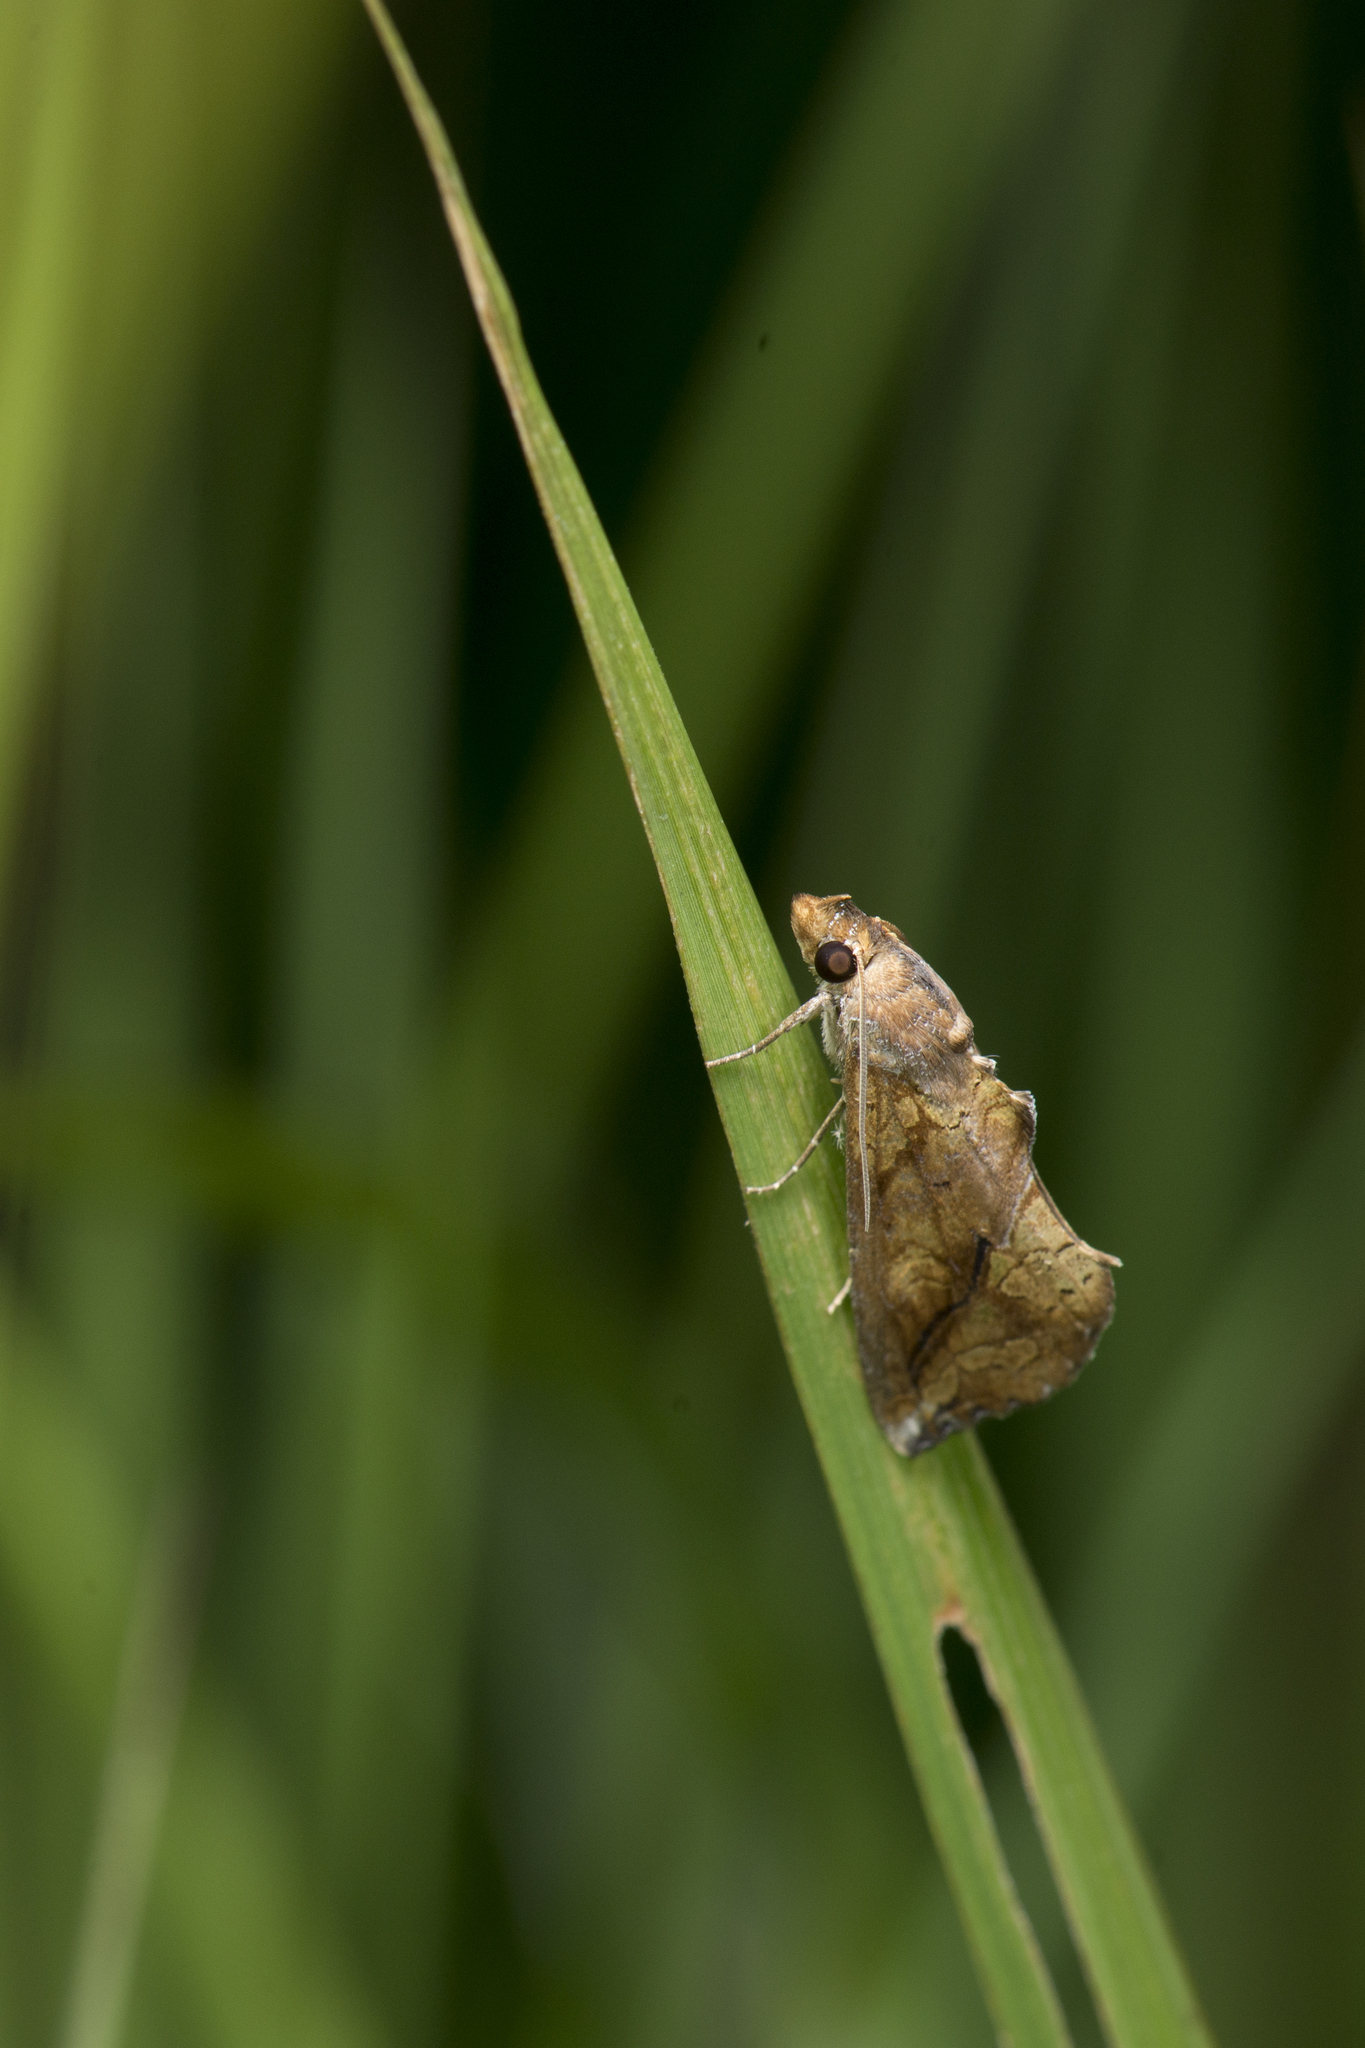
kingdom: Animalia
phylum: Arthropoda
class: Insecta
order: Lepidoptera
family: Erebidae
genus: Plusiodonta
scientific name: Plusiodonta coelonota
